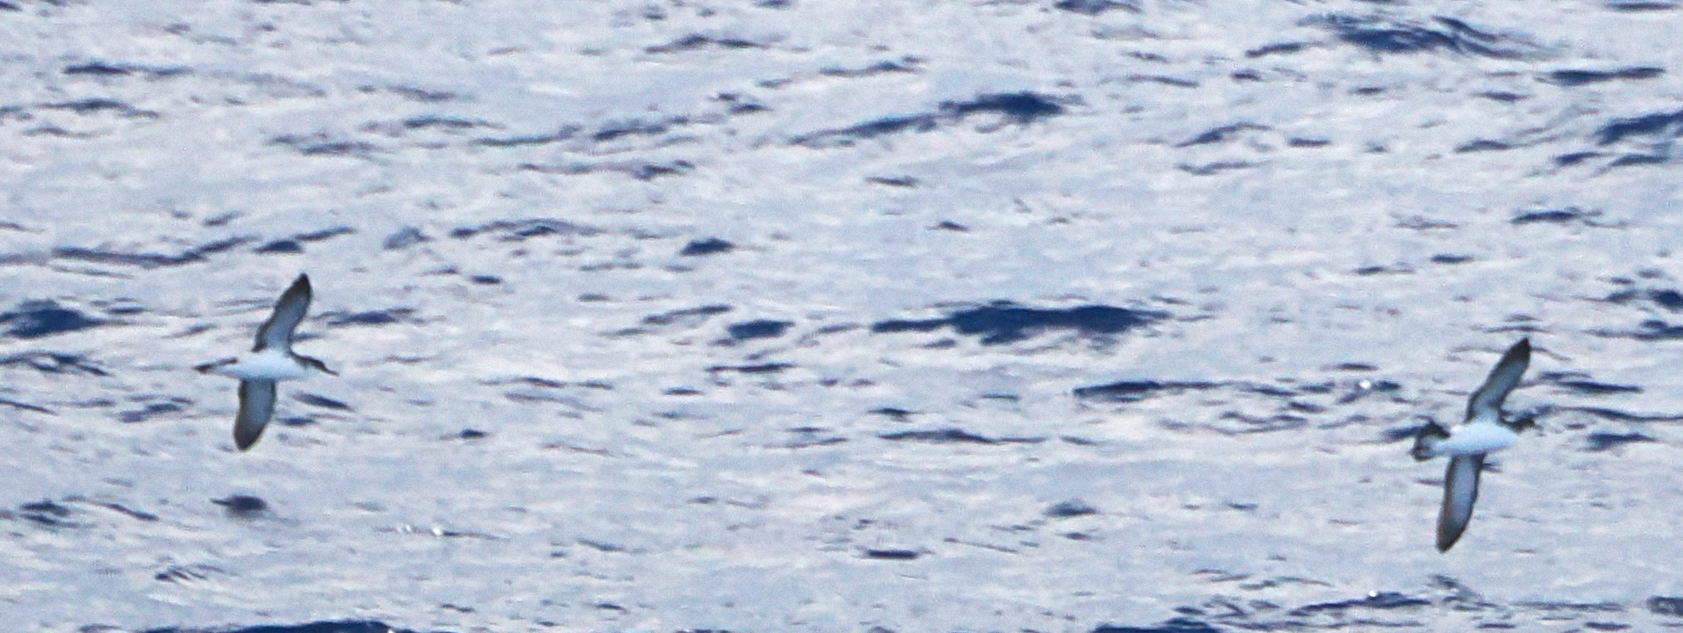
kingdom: Animalia
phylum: Chordata
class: Aves
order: Procellariiformes
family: Procellariidae
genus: Puffinus
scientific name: Puffinus puffinus
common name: Manx shearwater
